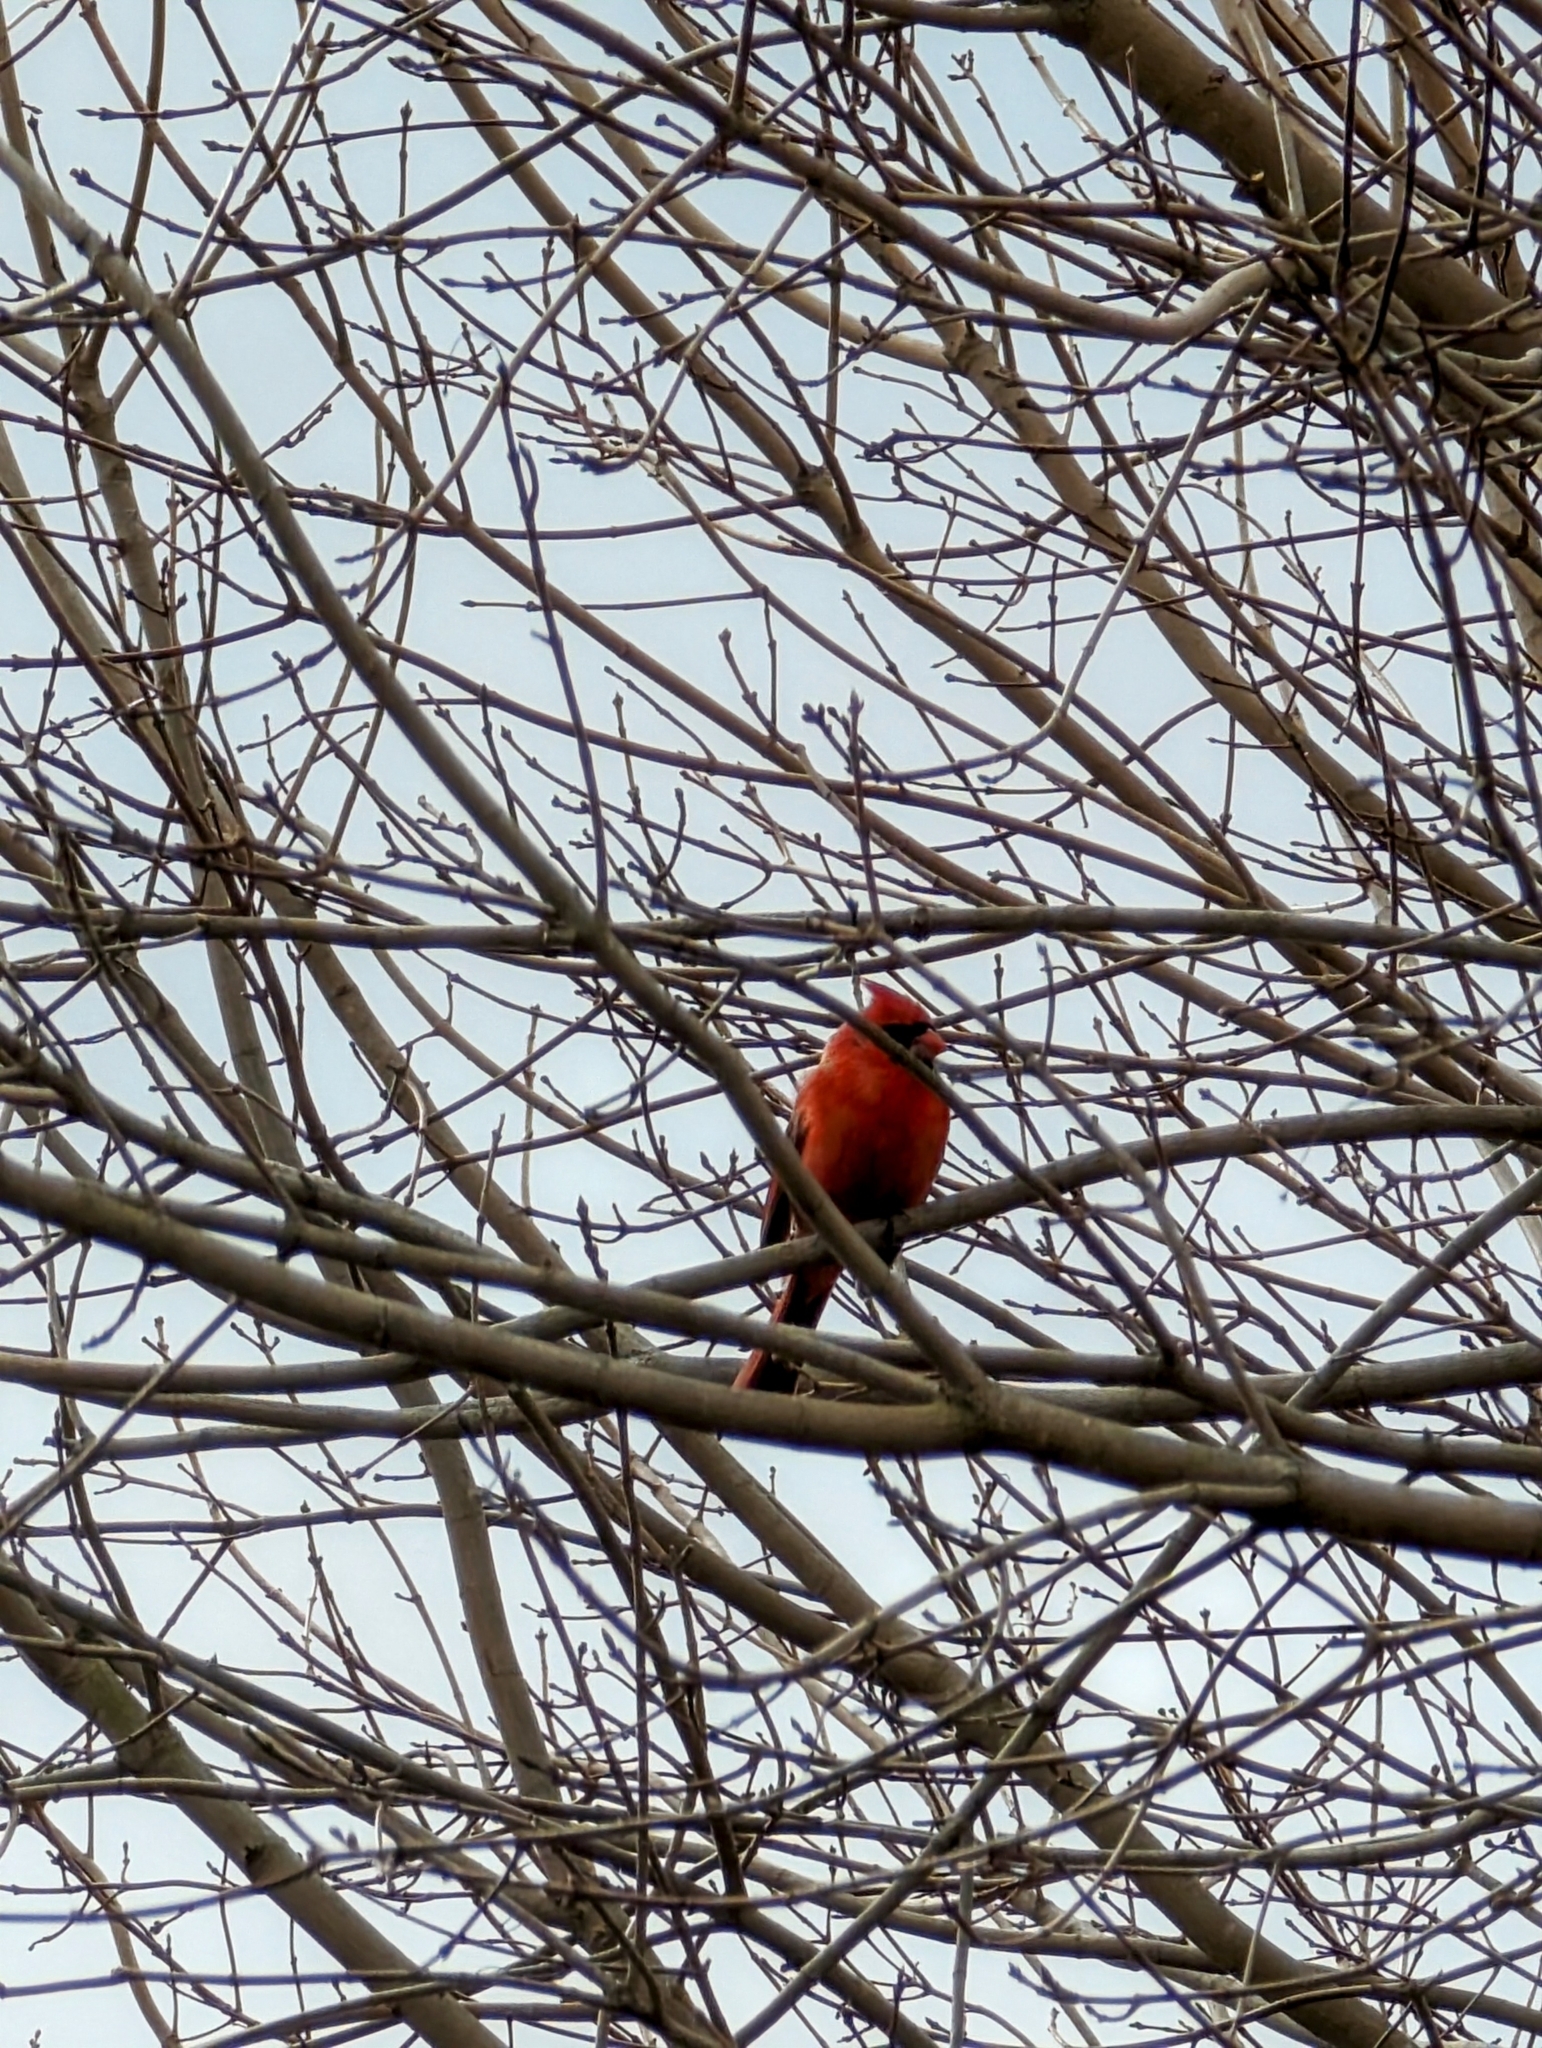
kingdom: Animalia
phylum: Chordata
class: Aves
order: Passeriformes
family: Cardinalidae
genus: Cardinalis
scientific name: Cardinalis cardinalis
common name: Northern cardinal
